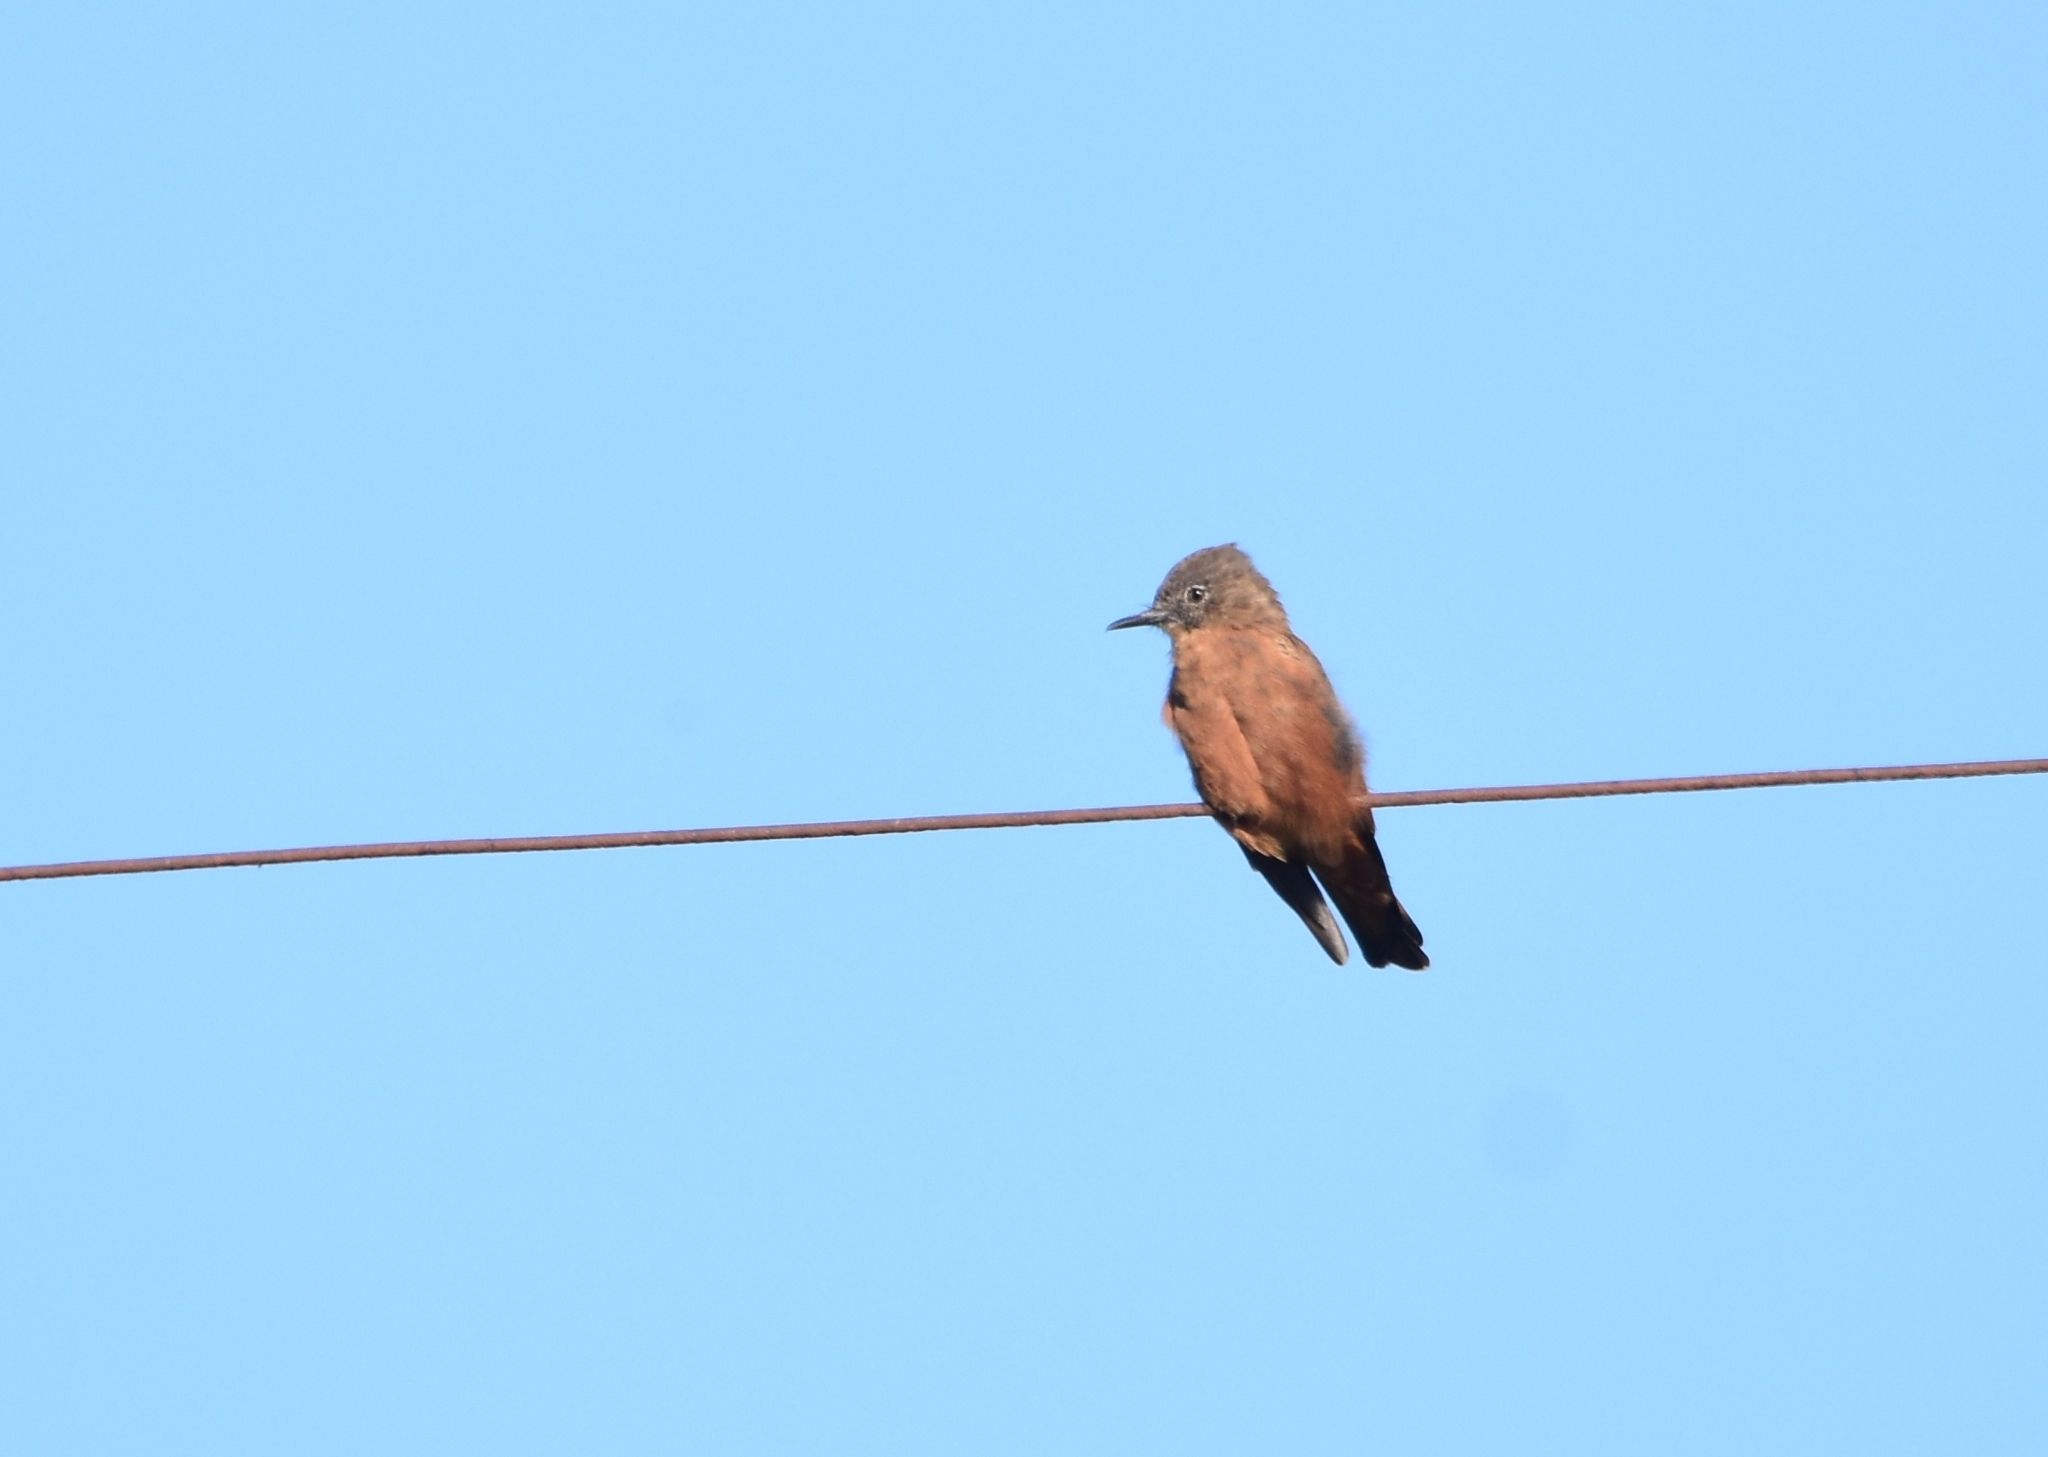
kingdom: Animalia
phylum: Chordata
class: Aves
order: Passeriformes
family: Tyrannidae
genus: Hirundinea
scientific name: Hirundinea ferruginea
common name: Cliff flycatcher
